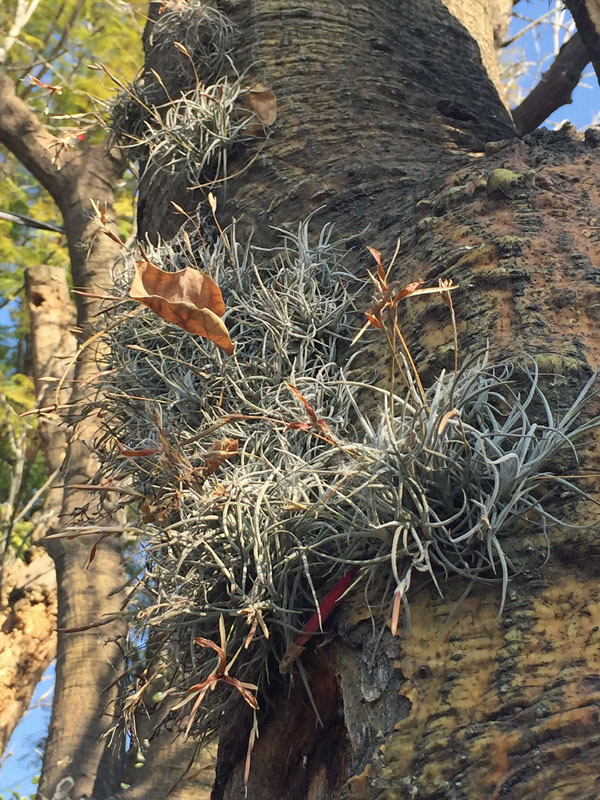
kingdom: Plantae
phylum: Tracheophyta
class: Liliopsida
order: Poales
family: Bromeliaceae
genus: Tillandsia
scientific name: Tillandsia recurvata
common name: Small ballmoss
